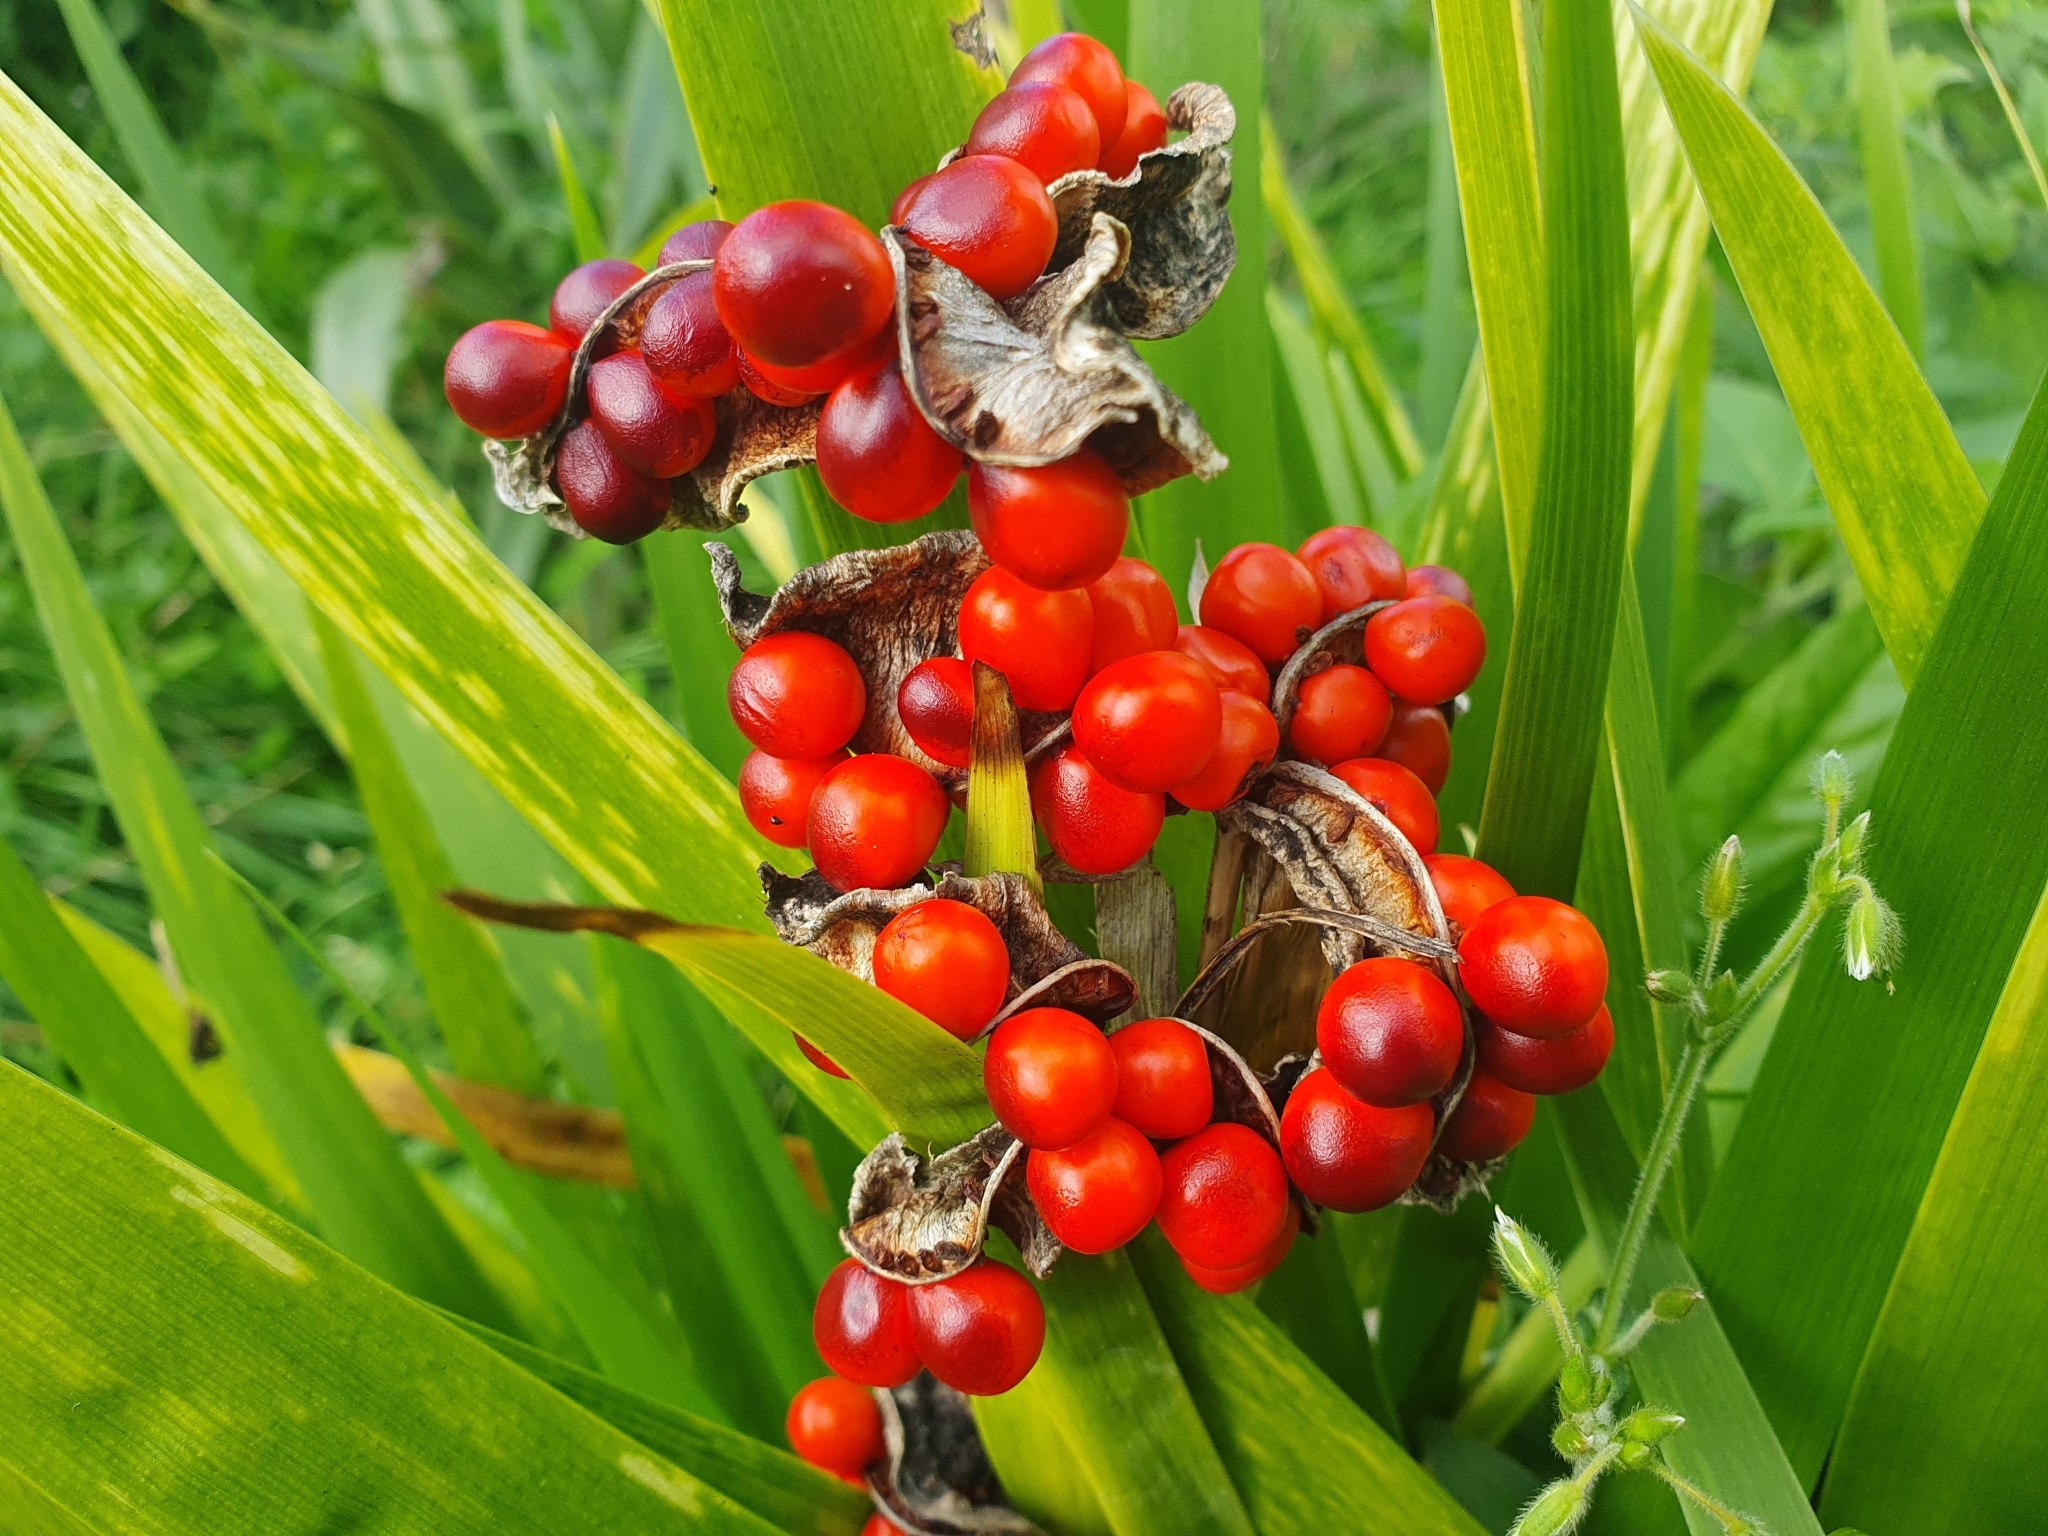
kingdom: Plantae
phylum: Tracheophyta
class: Liliopsida
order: Asparagales
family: Iridaceae
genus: Iris
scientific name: Iris foetidissima
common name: Stinking iris
